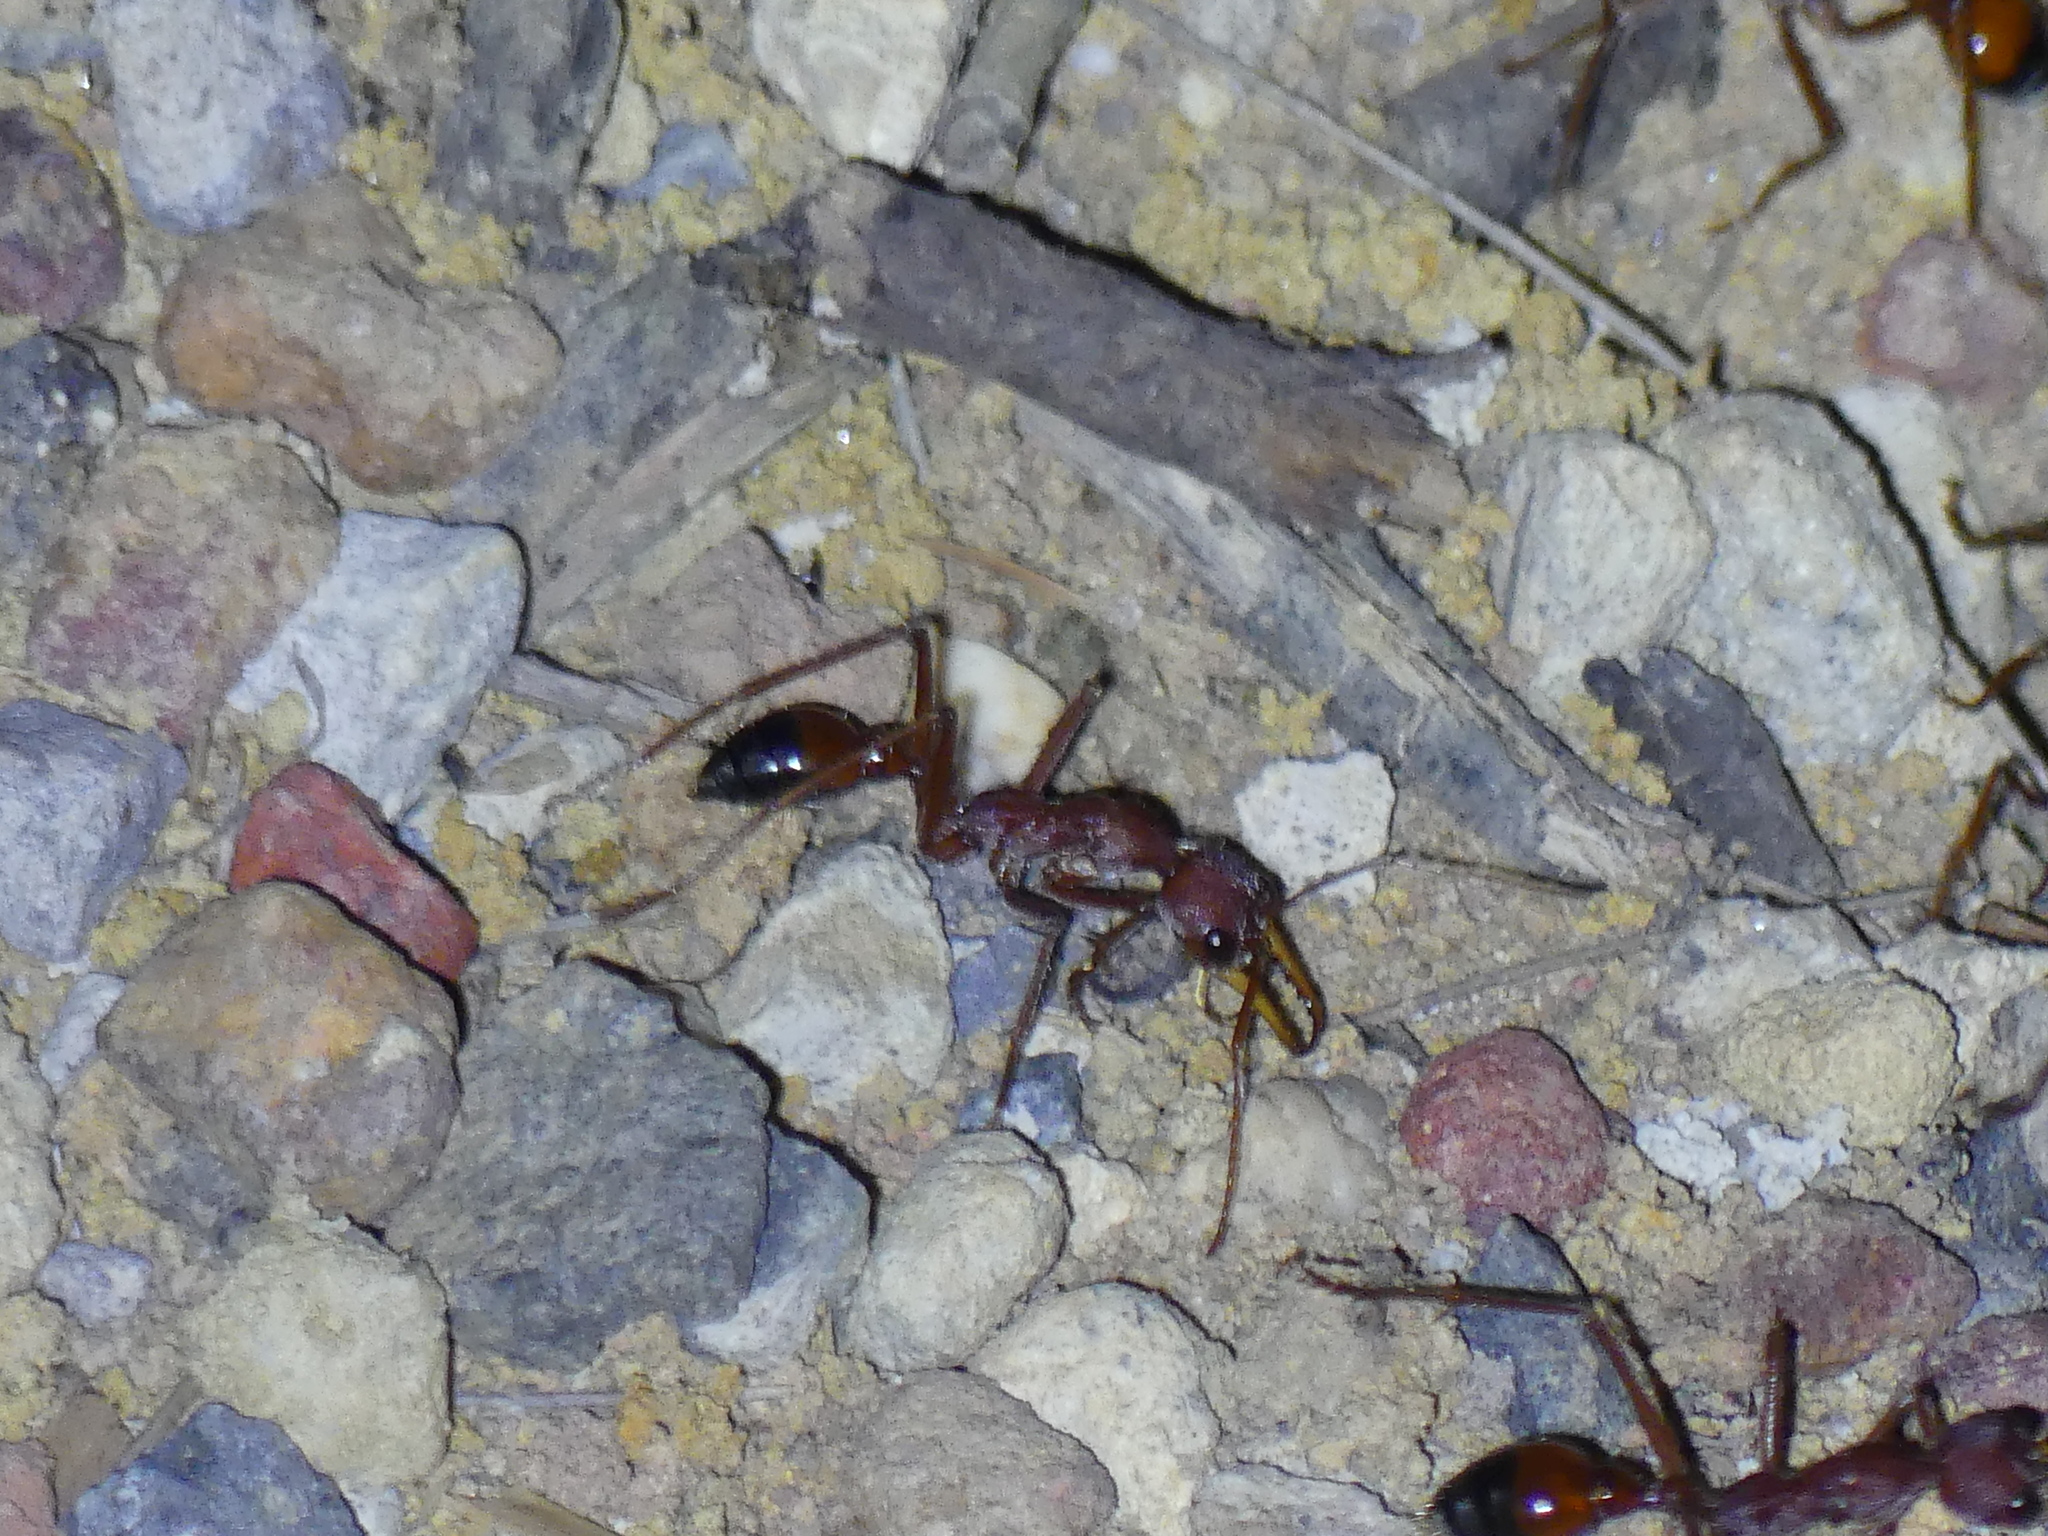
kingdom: Animalia
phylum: Arthropoda
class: Insecta
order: Hymenoptera
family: Formicidae
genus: Myrmecia
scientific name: Myrmecia gulosa
